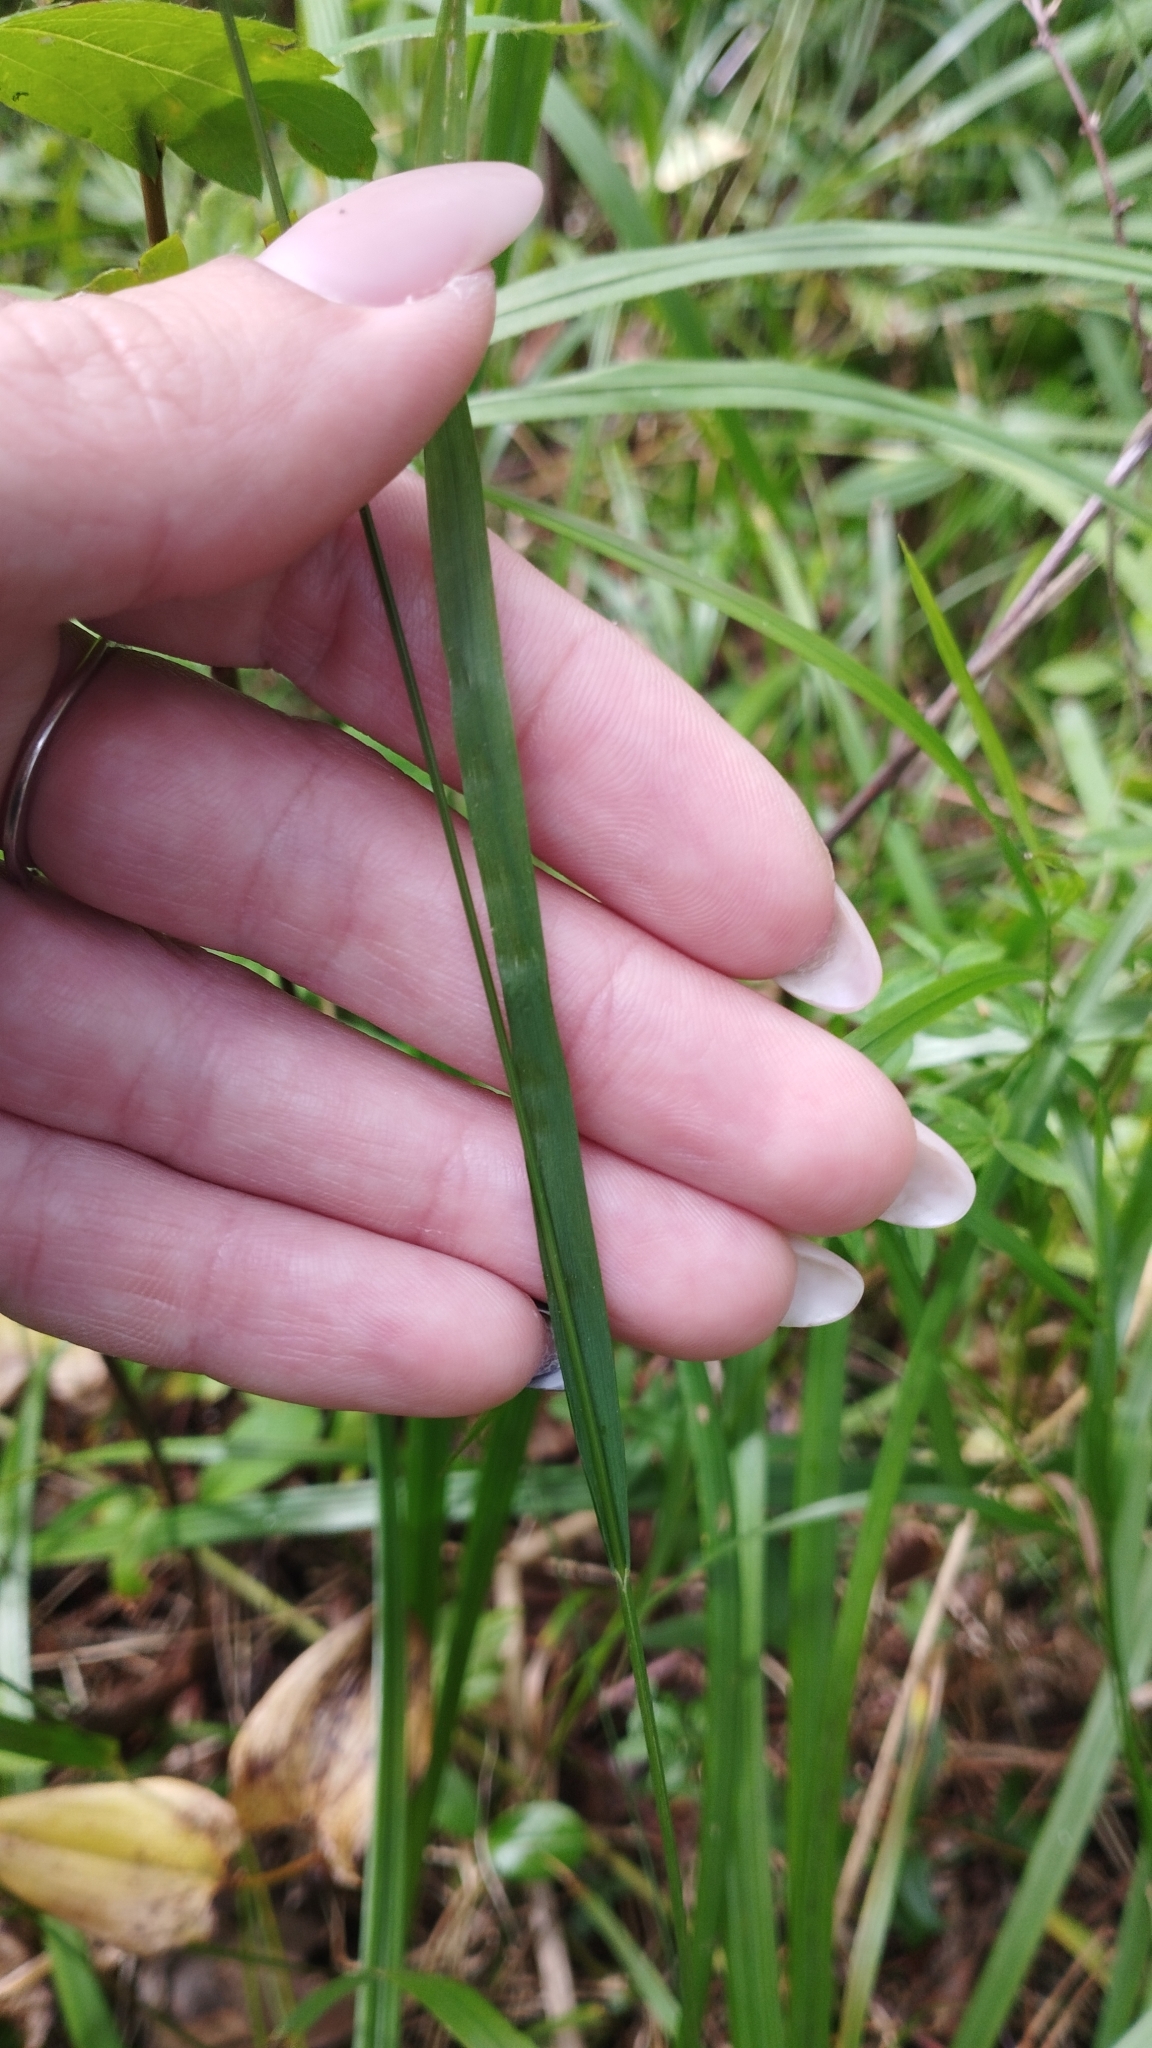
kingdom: Plantae
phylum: Tracheophyta
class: Liliopsida
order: Poales
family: Poaceae
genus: Melica
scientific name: Melica nutans
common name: Mountain melick
